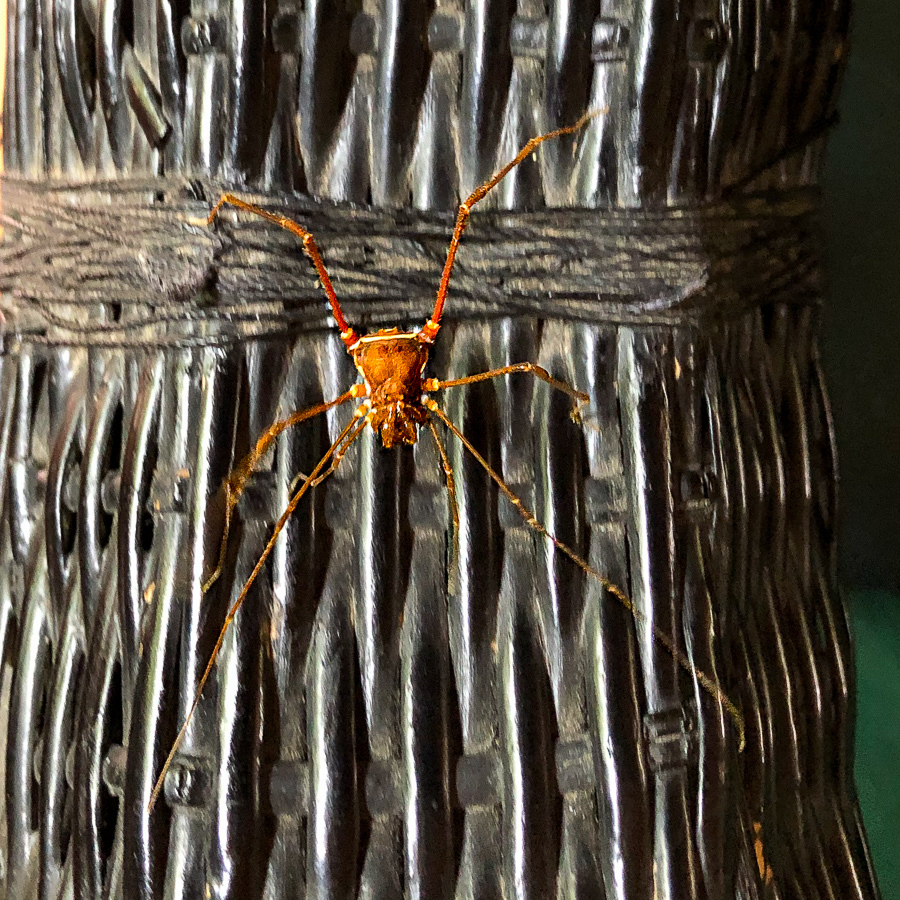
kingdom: Animalia
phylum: Arthropoda
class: Arachnida
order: Opiliones
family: Cranaidae
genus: Phareicranaus
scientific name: Phareicranaus calcariferus
